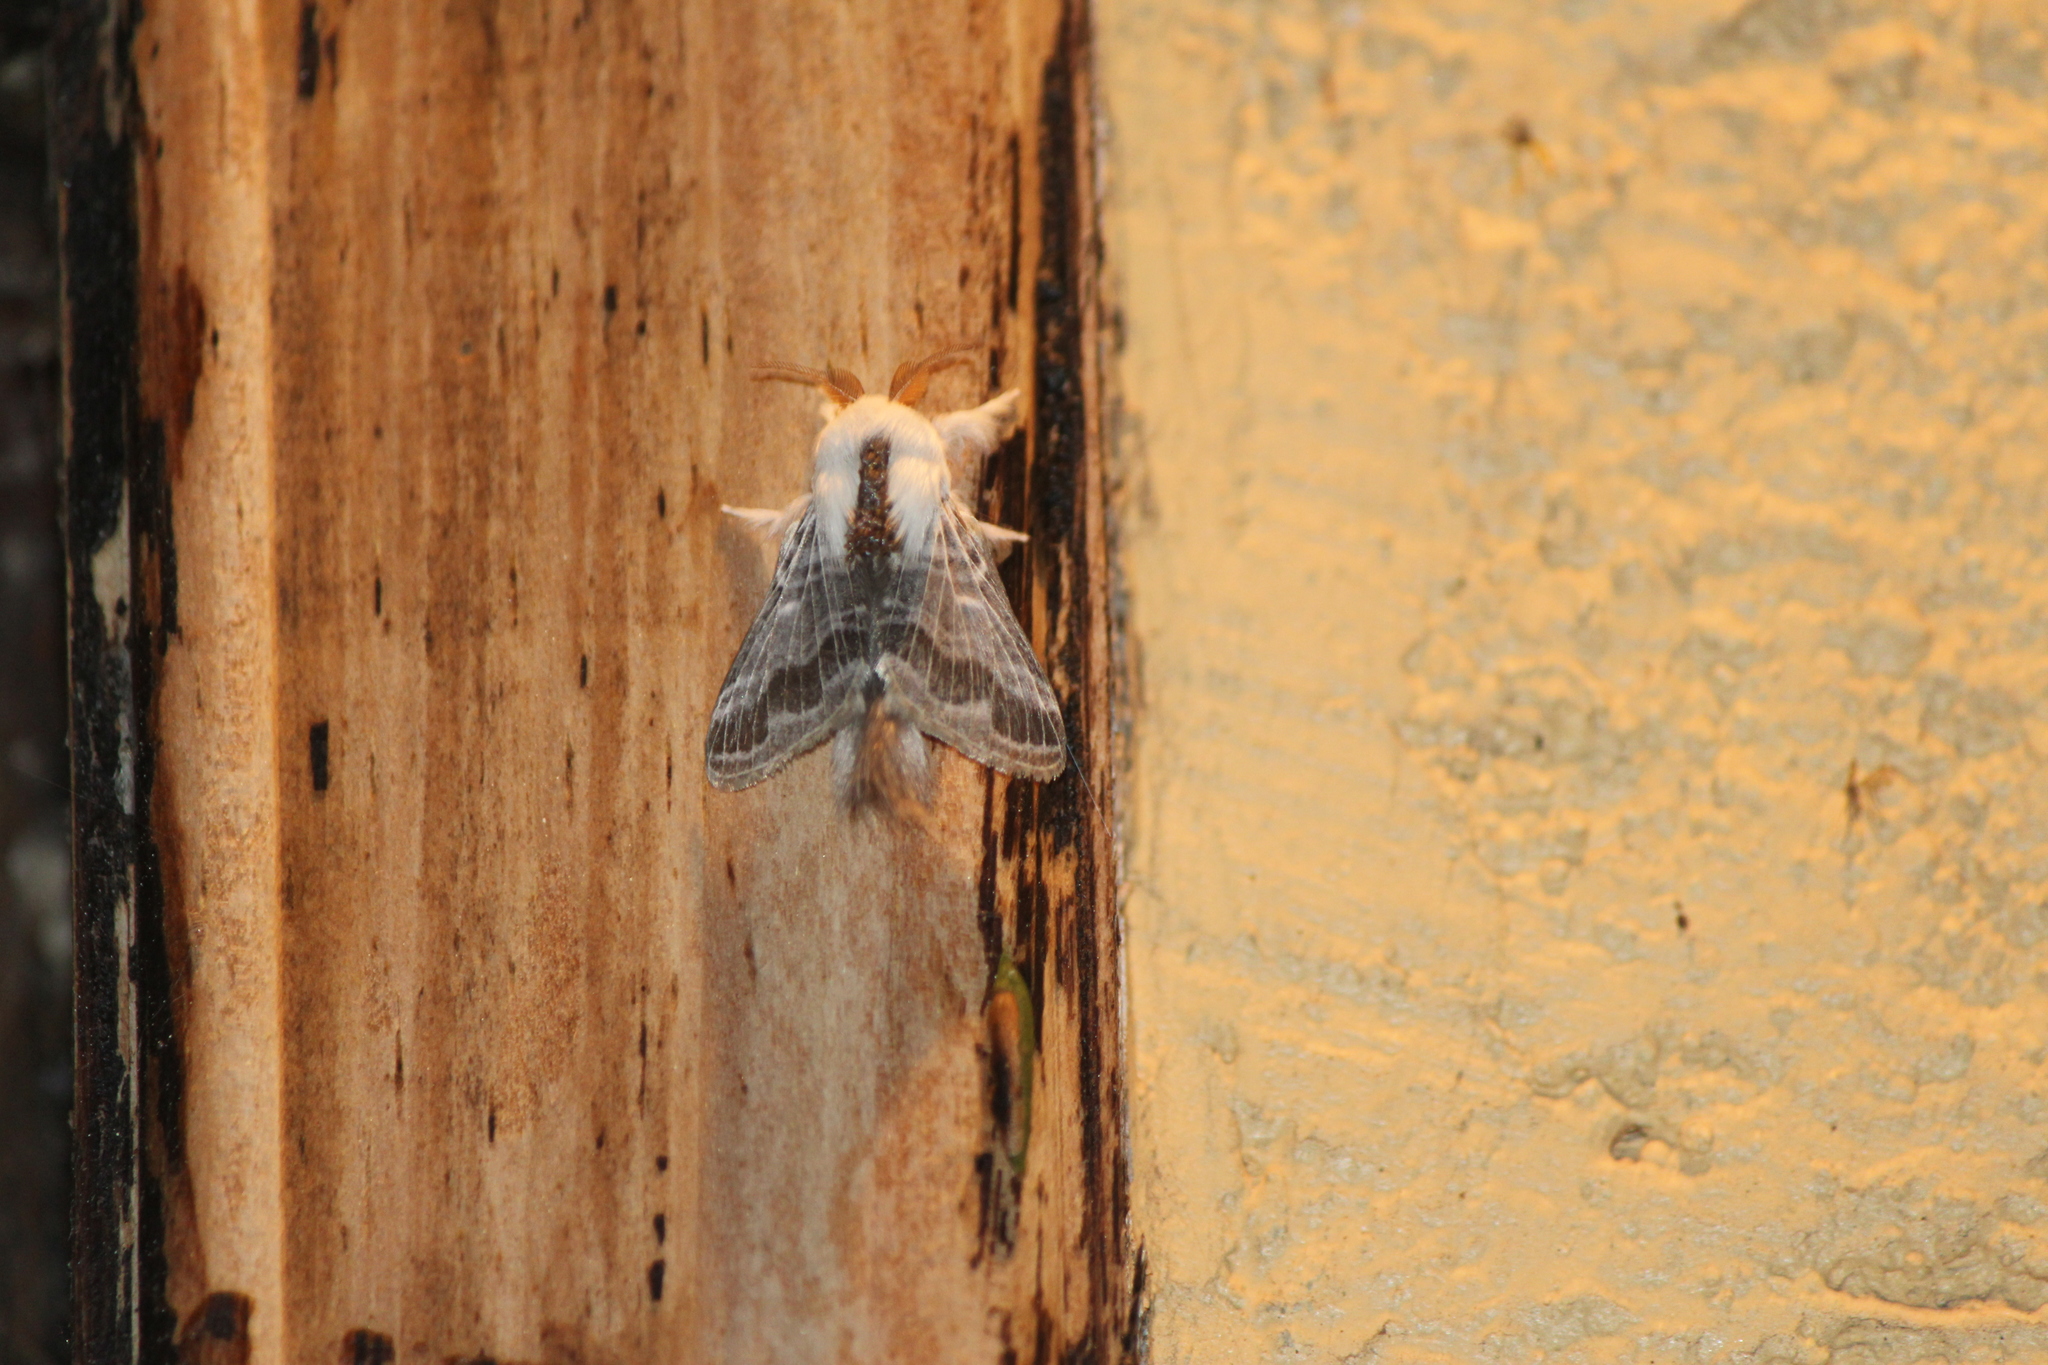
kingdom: Animalia
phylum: Arthropoda
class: Insecta
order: Lepidoptera
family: Lasiocampidae
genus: Tolype
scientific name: Tolype velleda
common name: Large tolype moth
